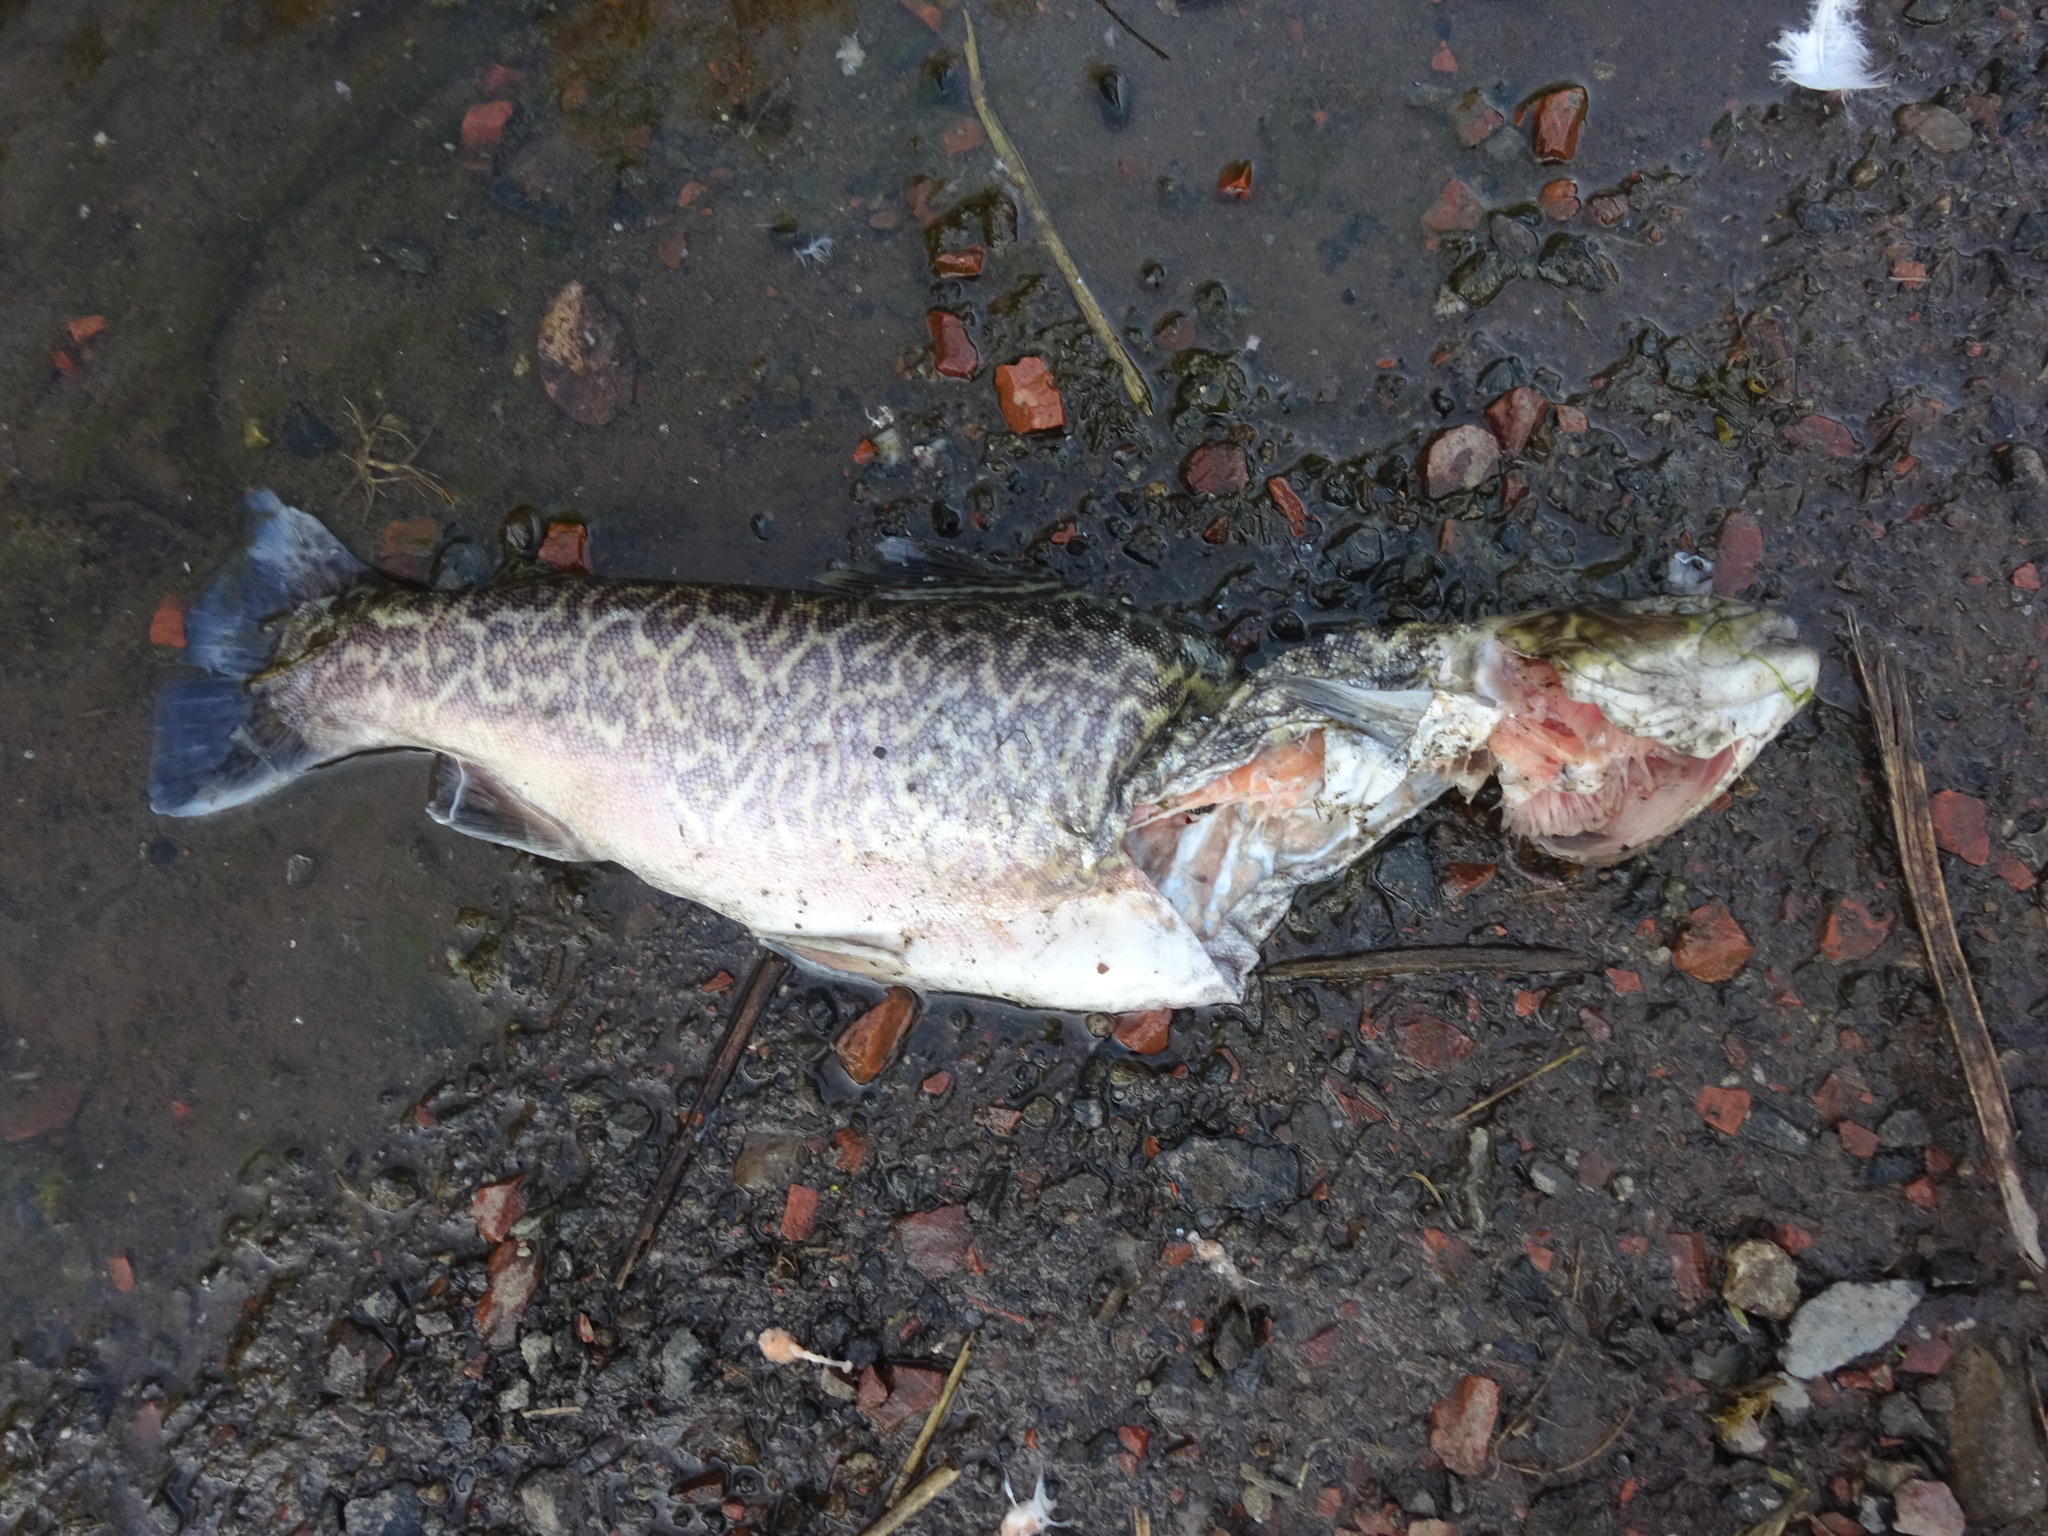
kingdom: Animalia
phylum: Chordata
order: Salmoniformes
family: Salmonidae
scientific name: Salmonidae
